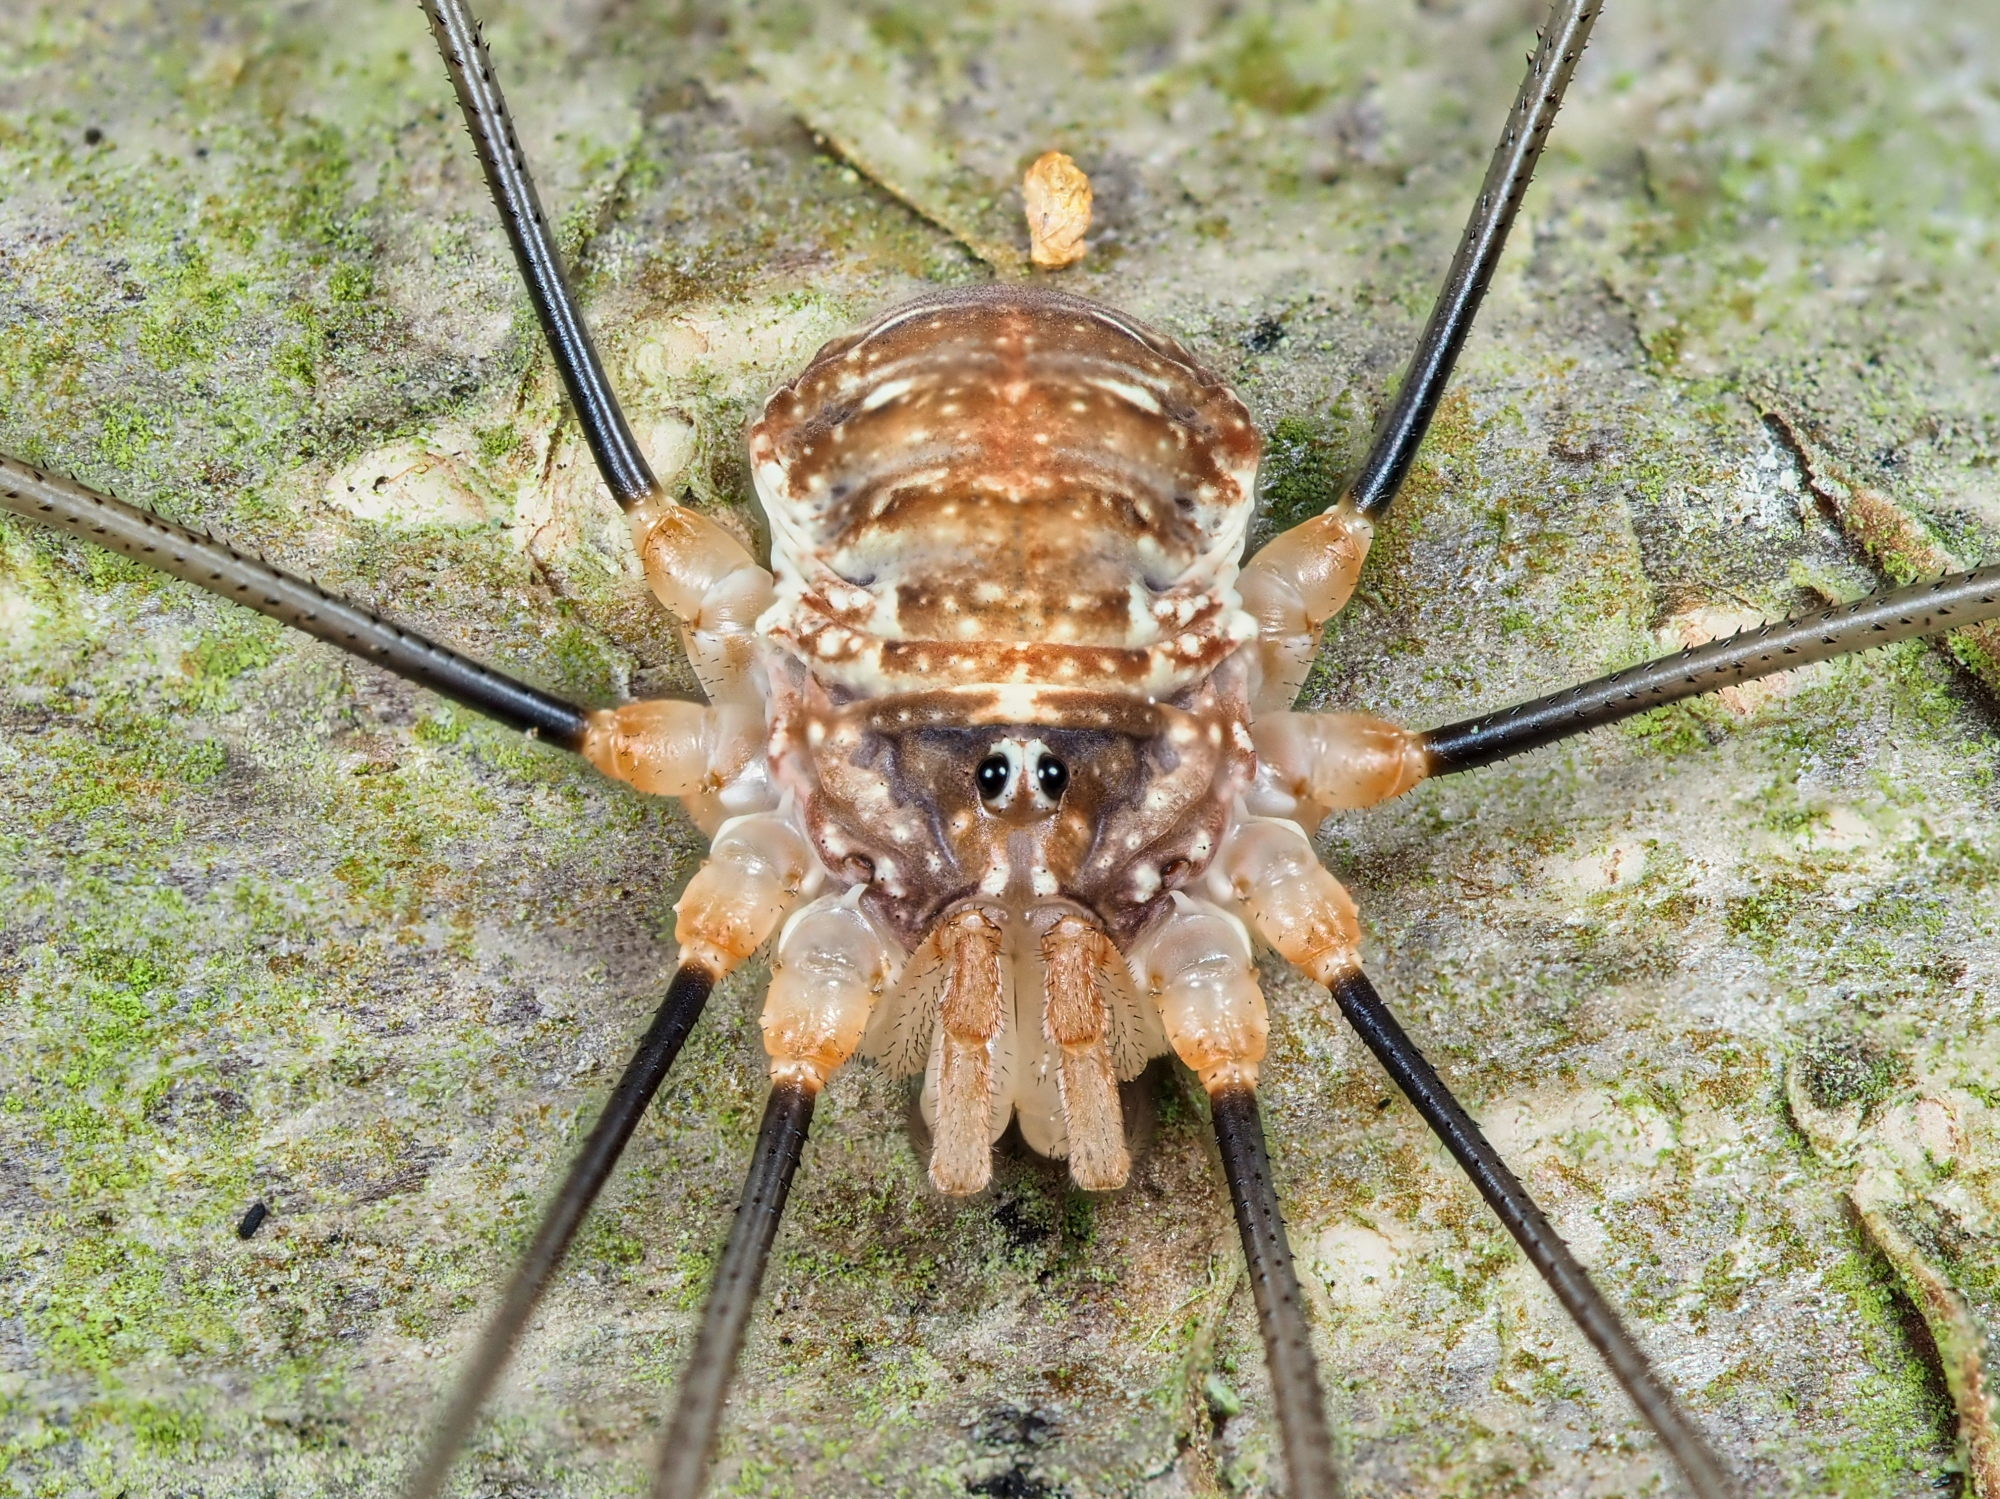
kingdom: Animalia
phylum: Arthropoda
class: Arachnida
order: Opiliones
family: Phalangiidae
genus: Opilio
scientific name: Opilio canestrinii
